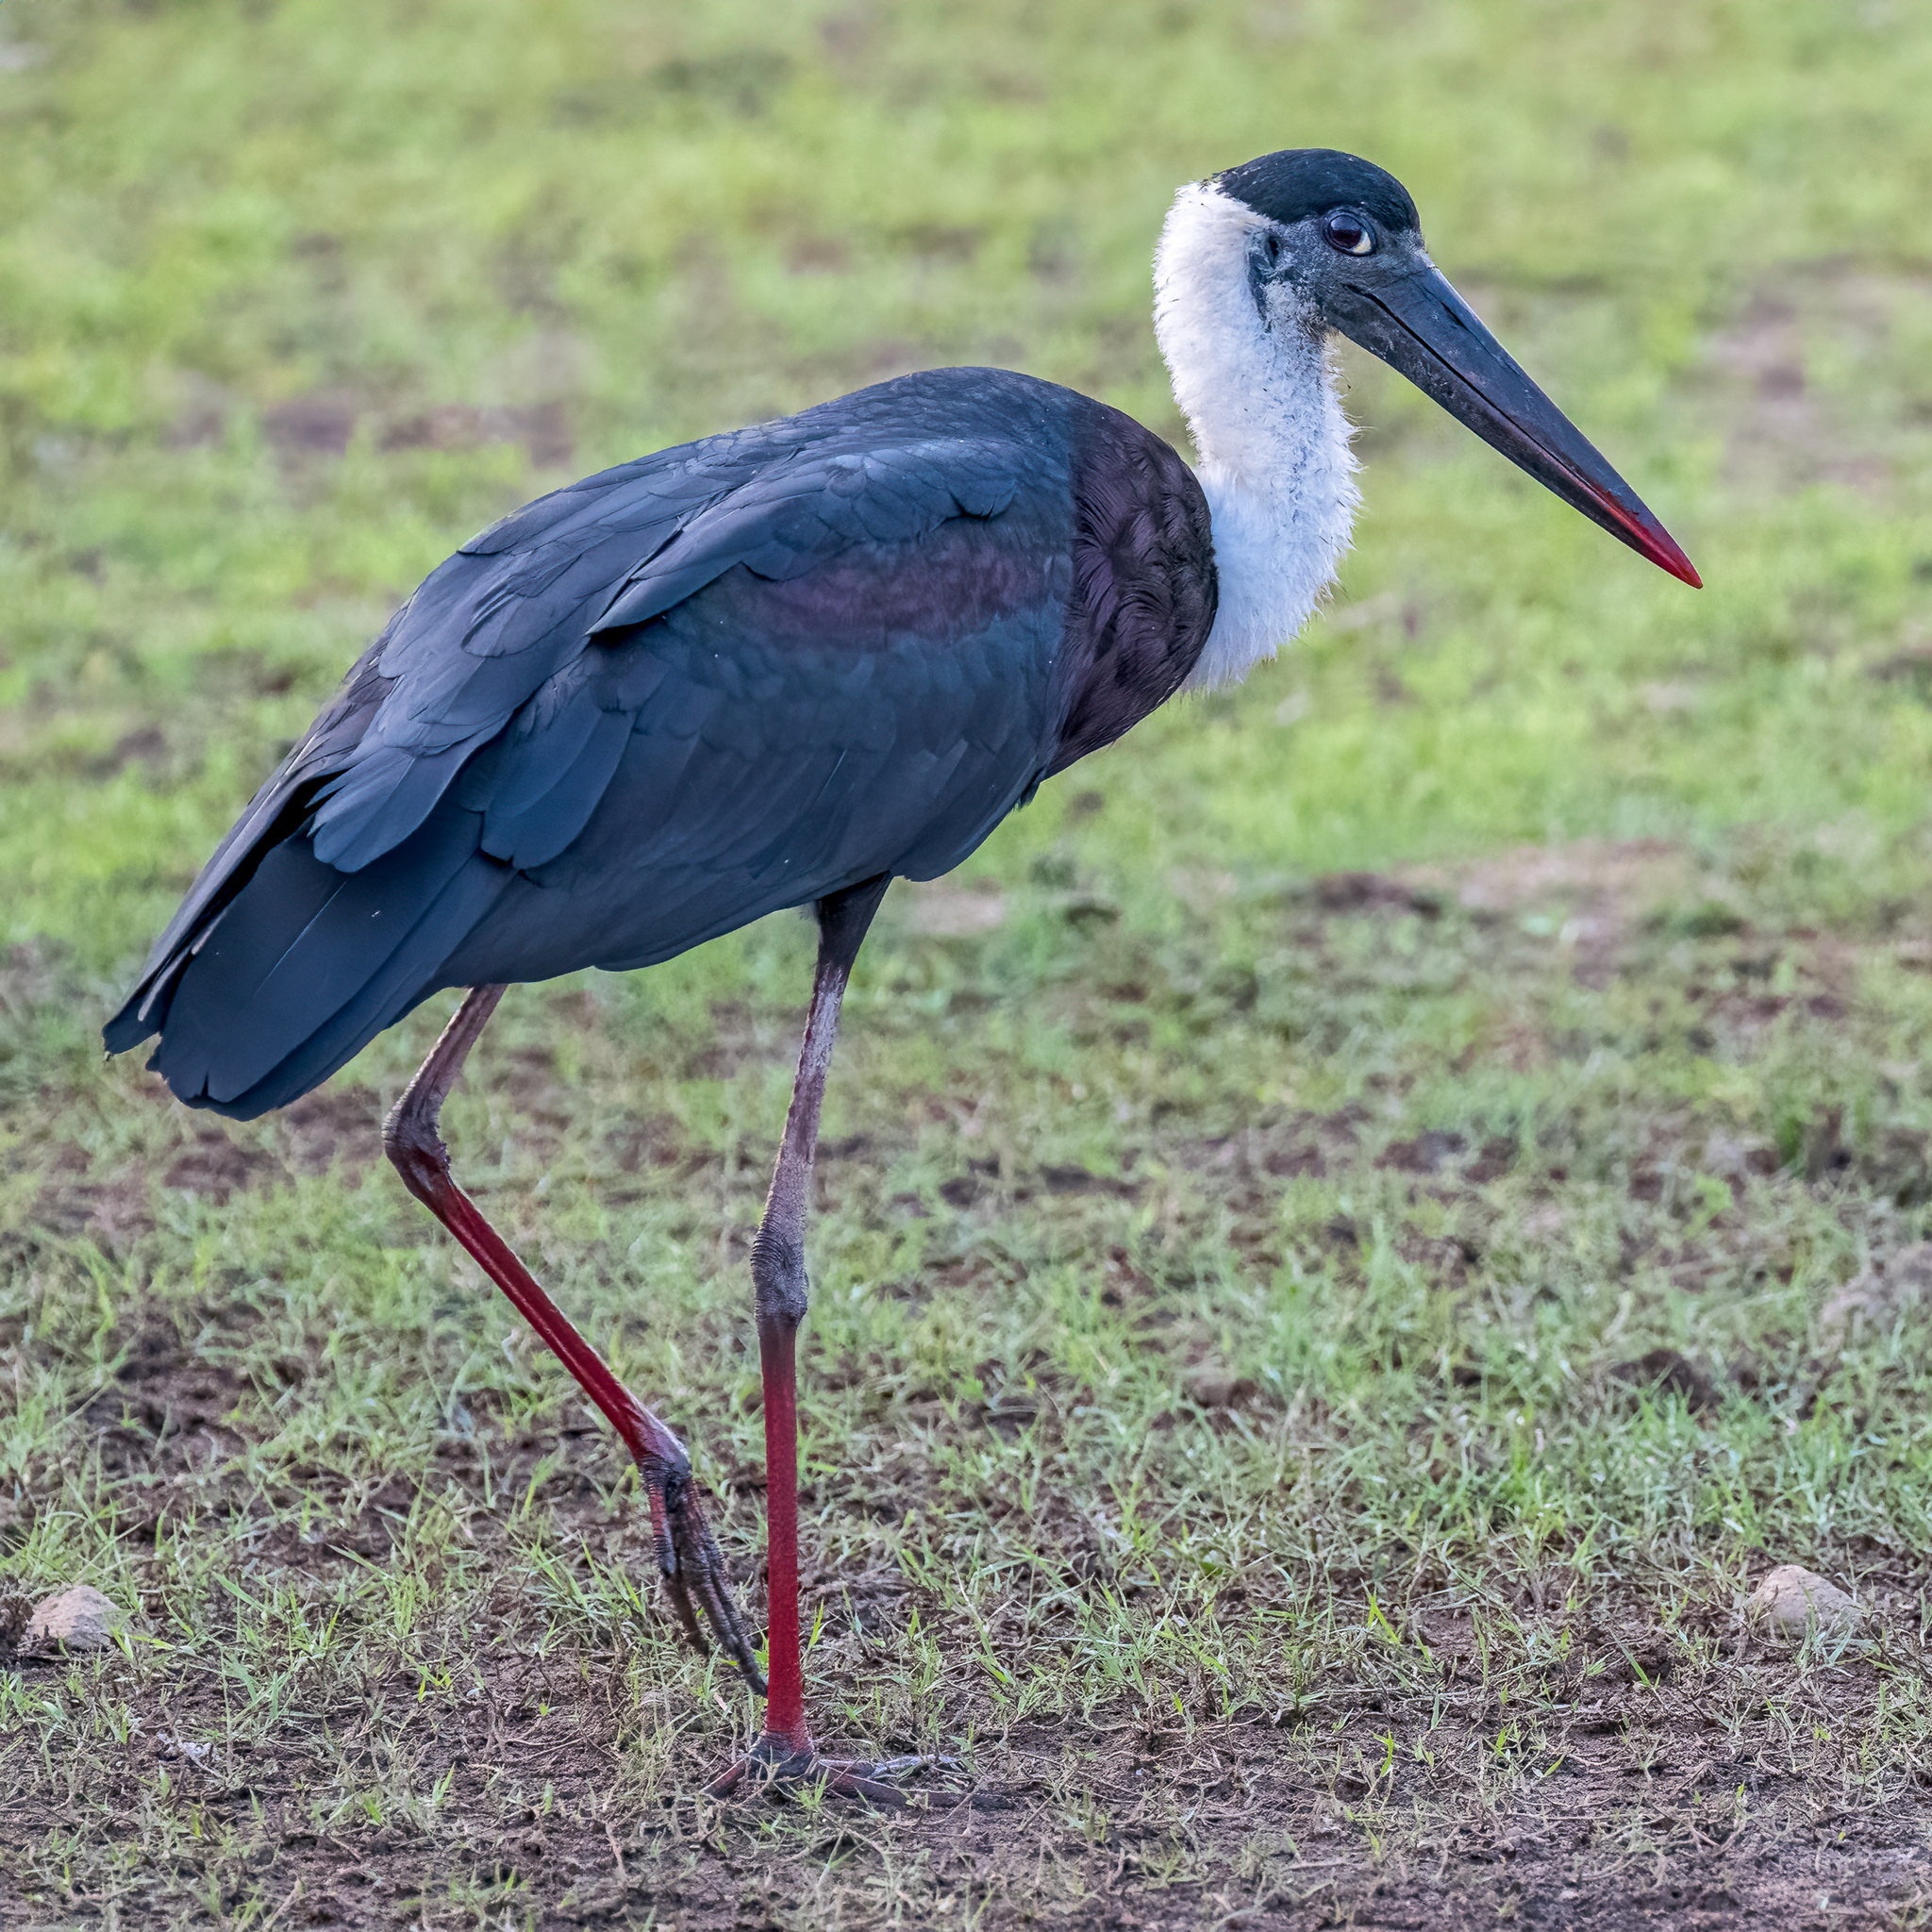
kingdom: Animalia
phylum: Chordata
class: Aves
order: Ciconiiformes
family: Ciconiidae
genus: Ciconia
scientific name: Ciconia episcopus
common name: Woolly-necked stork
